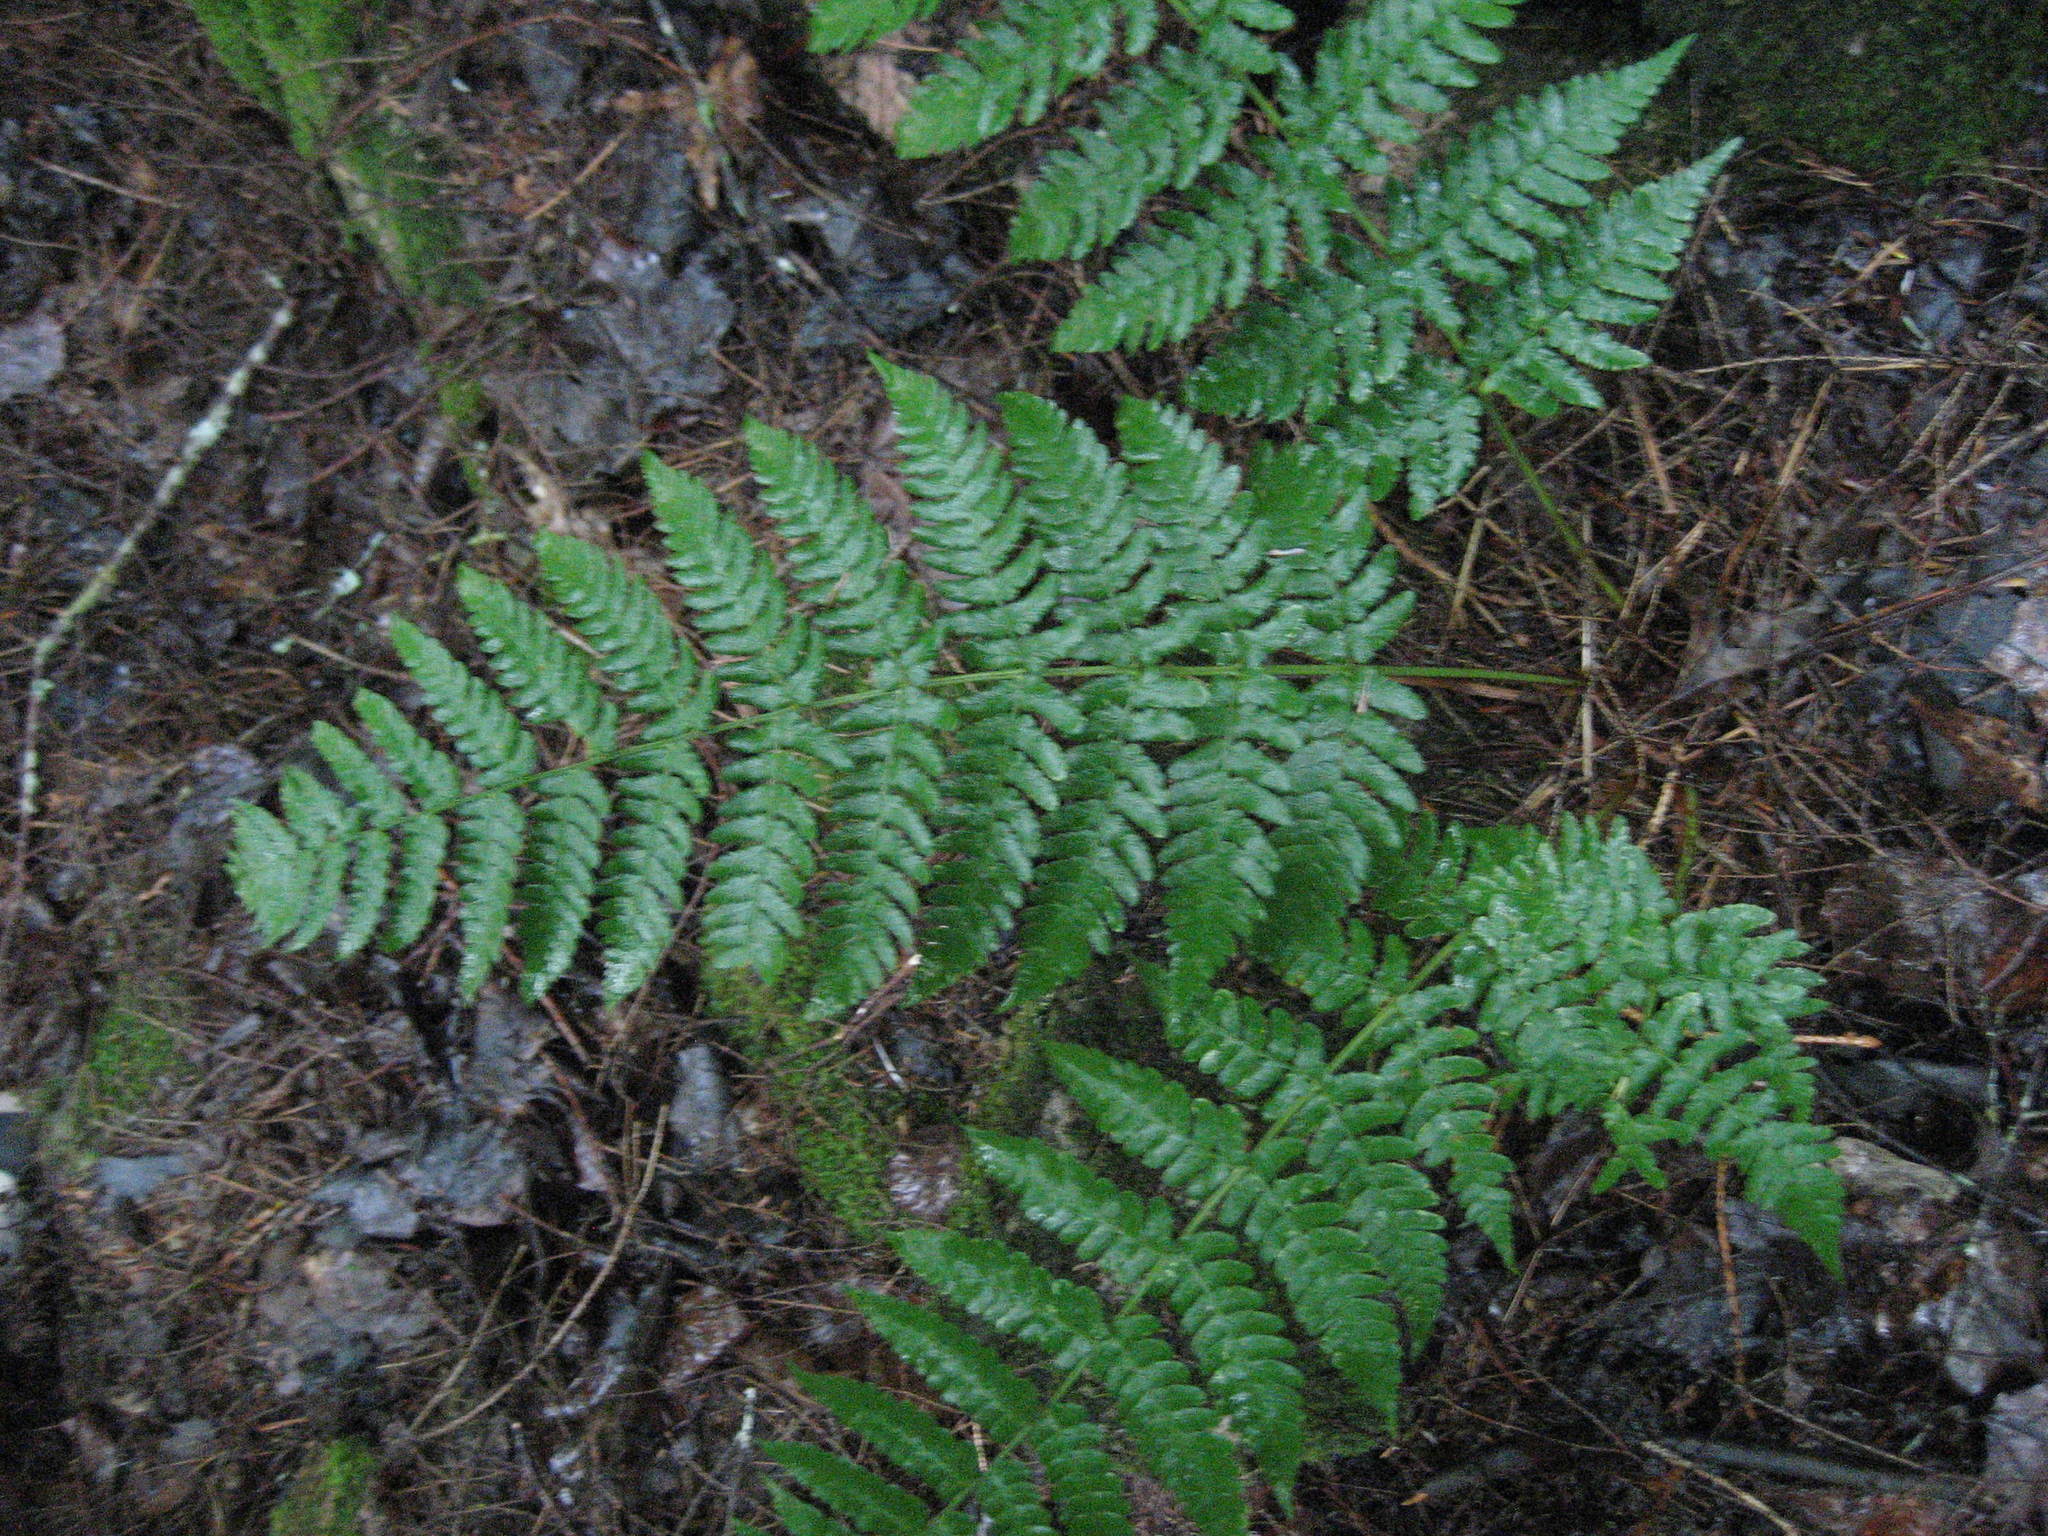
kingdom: Plantae
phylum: Tracheophyta
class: Polypodiopsida
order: Polypodiales
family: Dryopteridaceae
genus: Dryopteris
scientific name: Dryopteris marginalis
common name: Marginal wood fern
